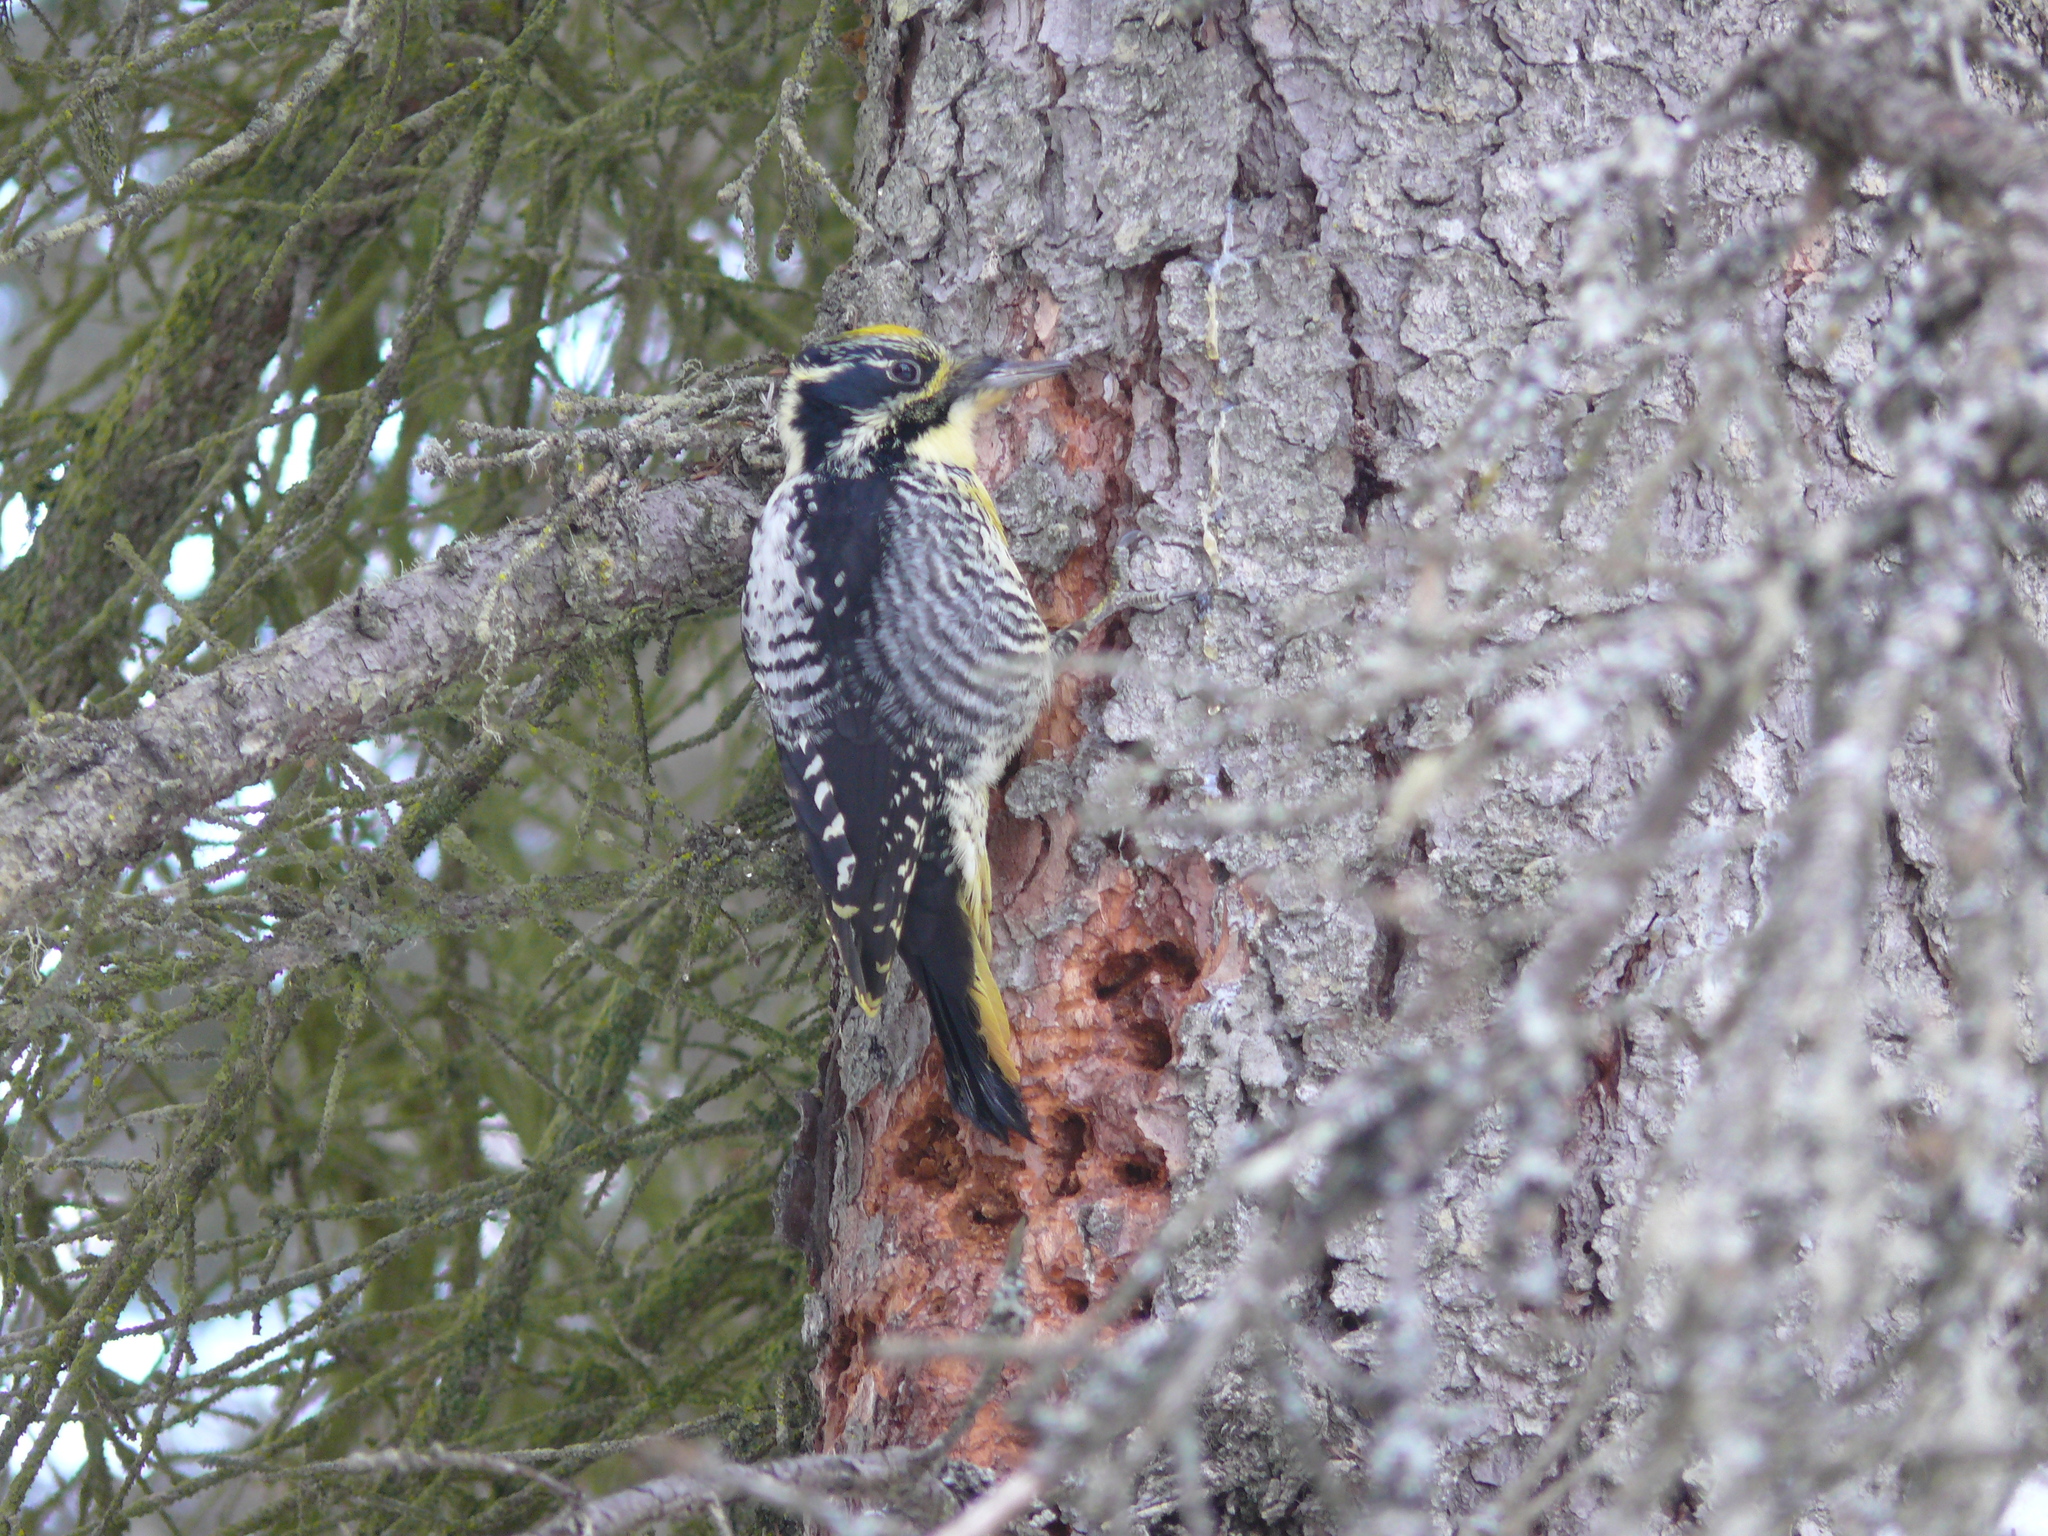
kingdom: Animalia
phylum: Chordata
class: Aves
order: Piciformes
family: Picidae
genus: Picoides
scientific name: Picoides dorsalis
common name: American three-toed woodpecker
